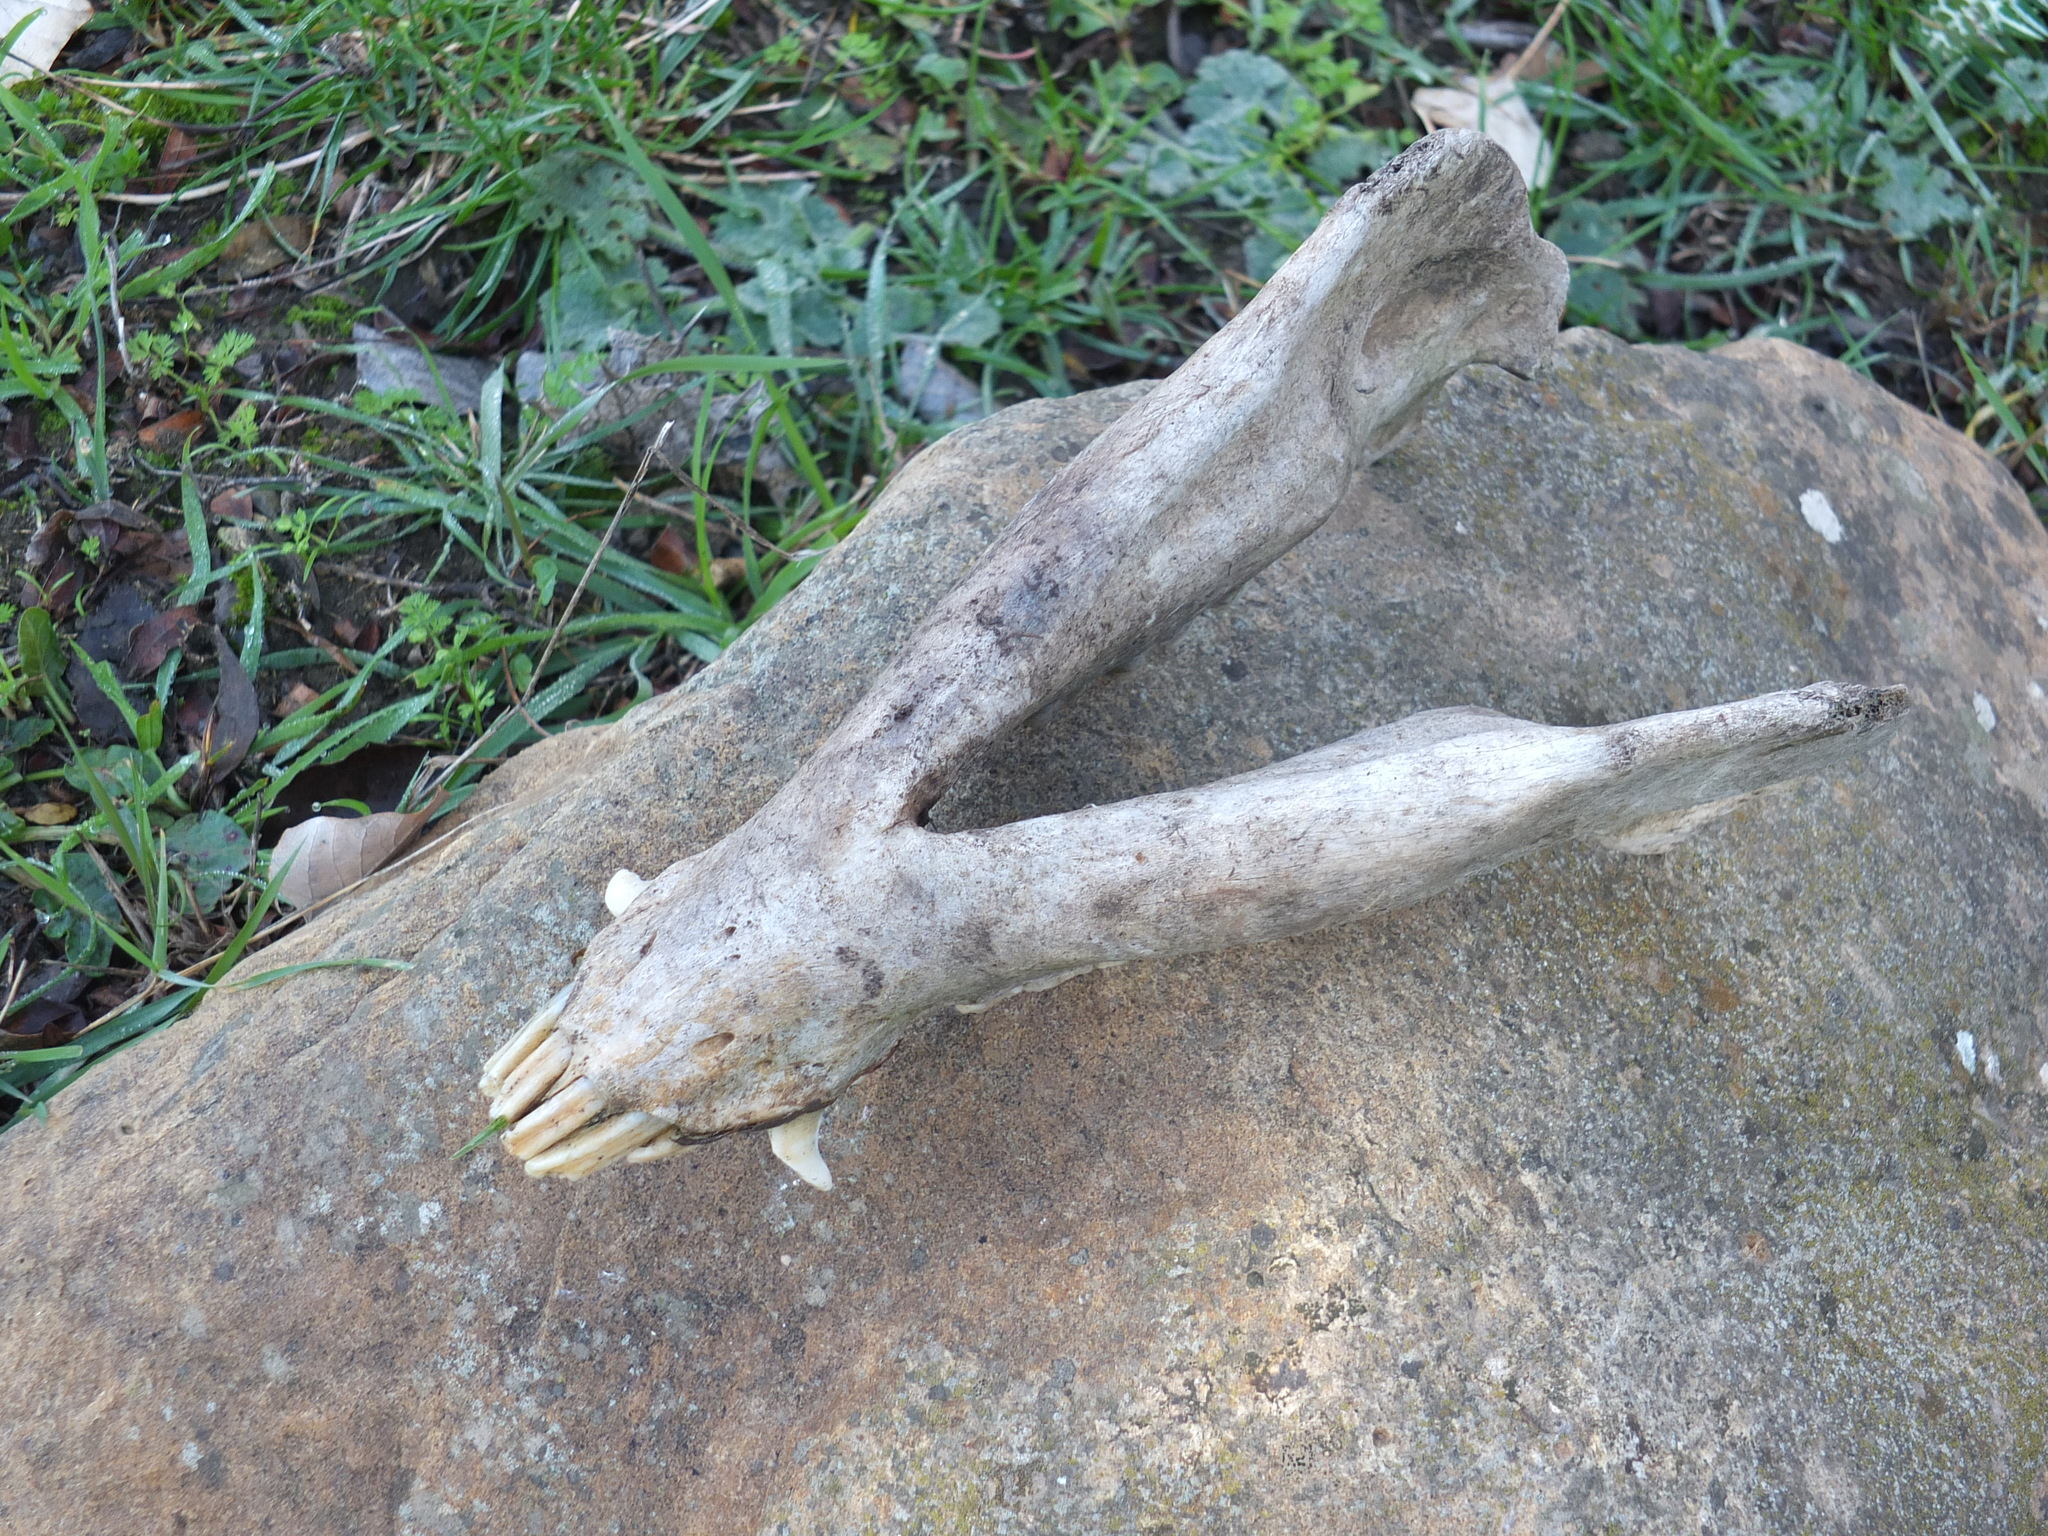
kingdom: Animalia
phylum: Chordata
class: Mammalia
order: Artiodactyla
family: Suidae
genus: Sus
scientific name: Sus scrofa
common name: Wild boar
